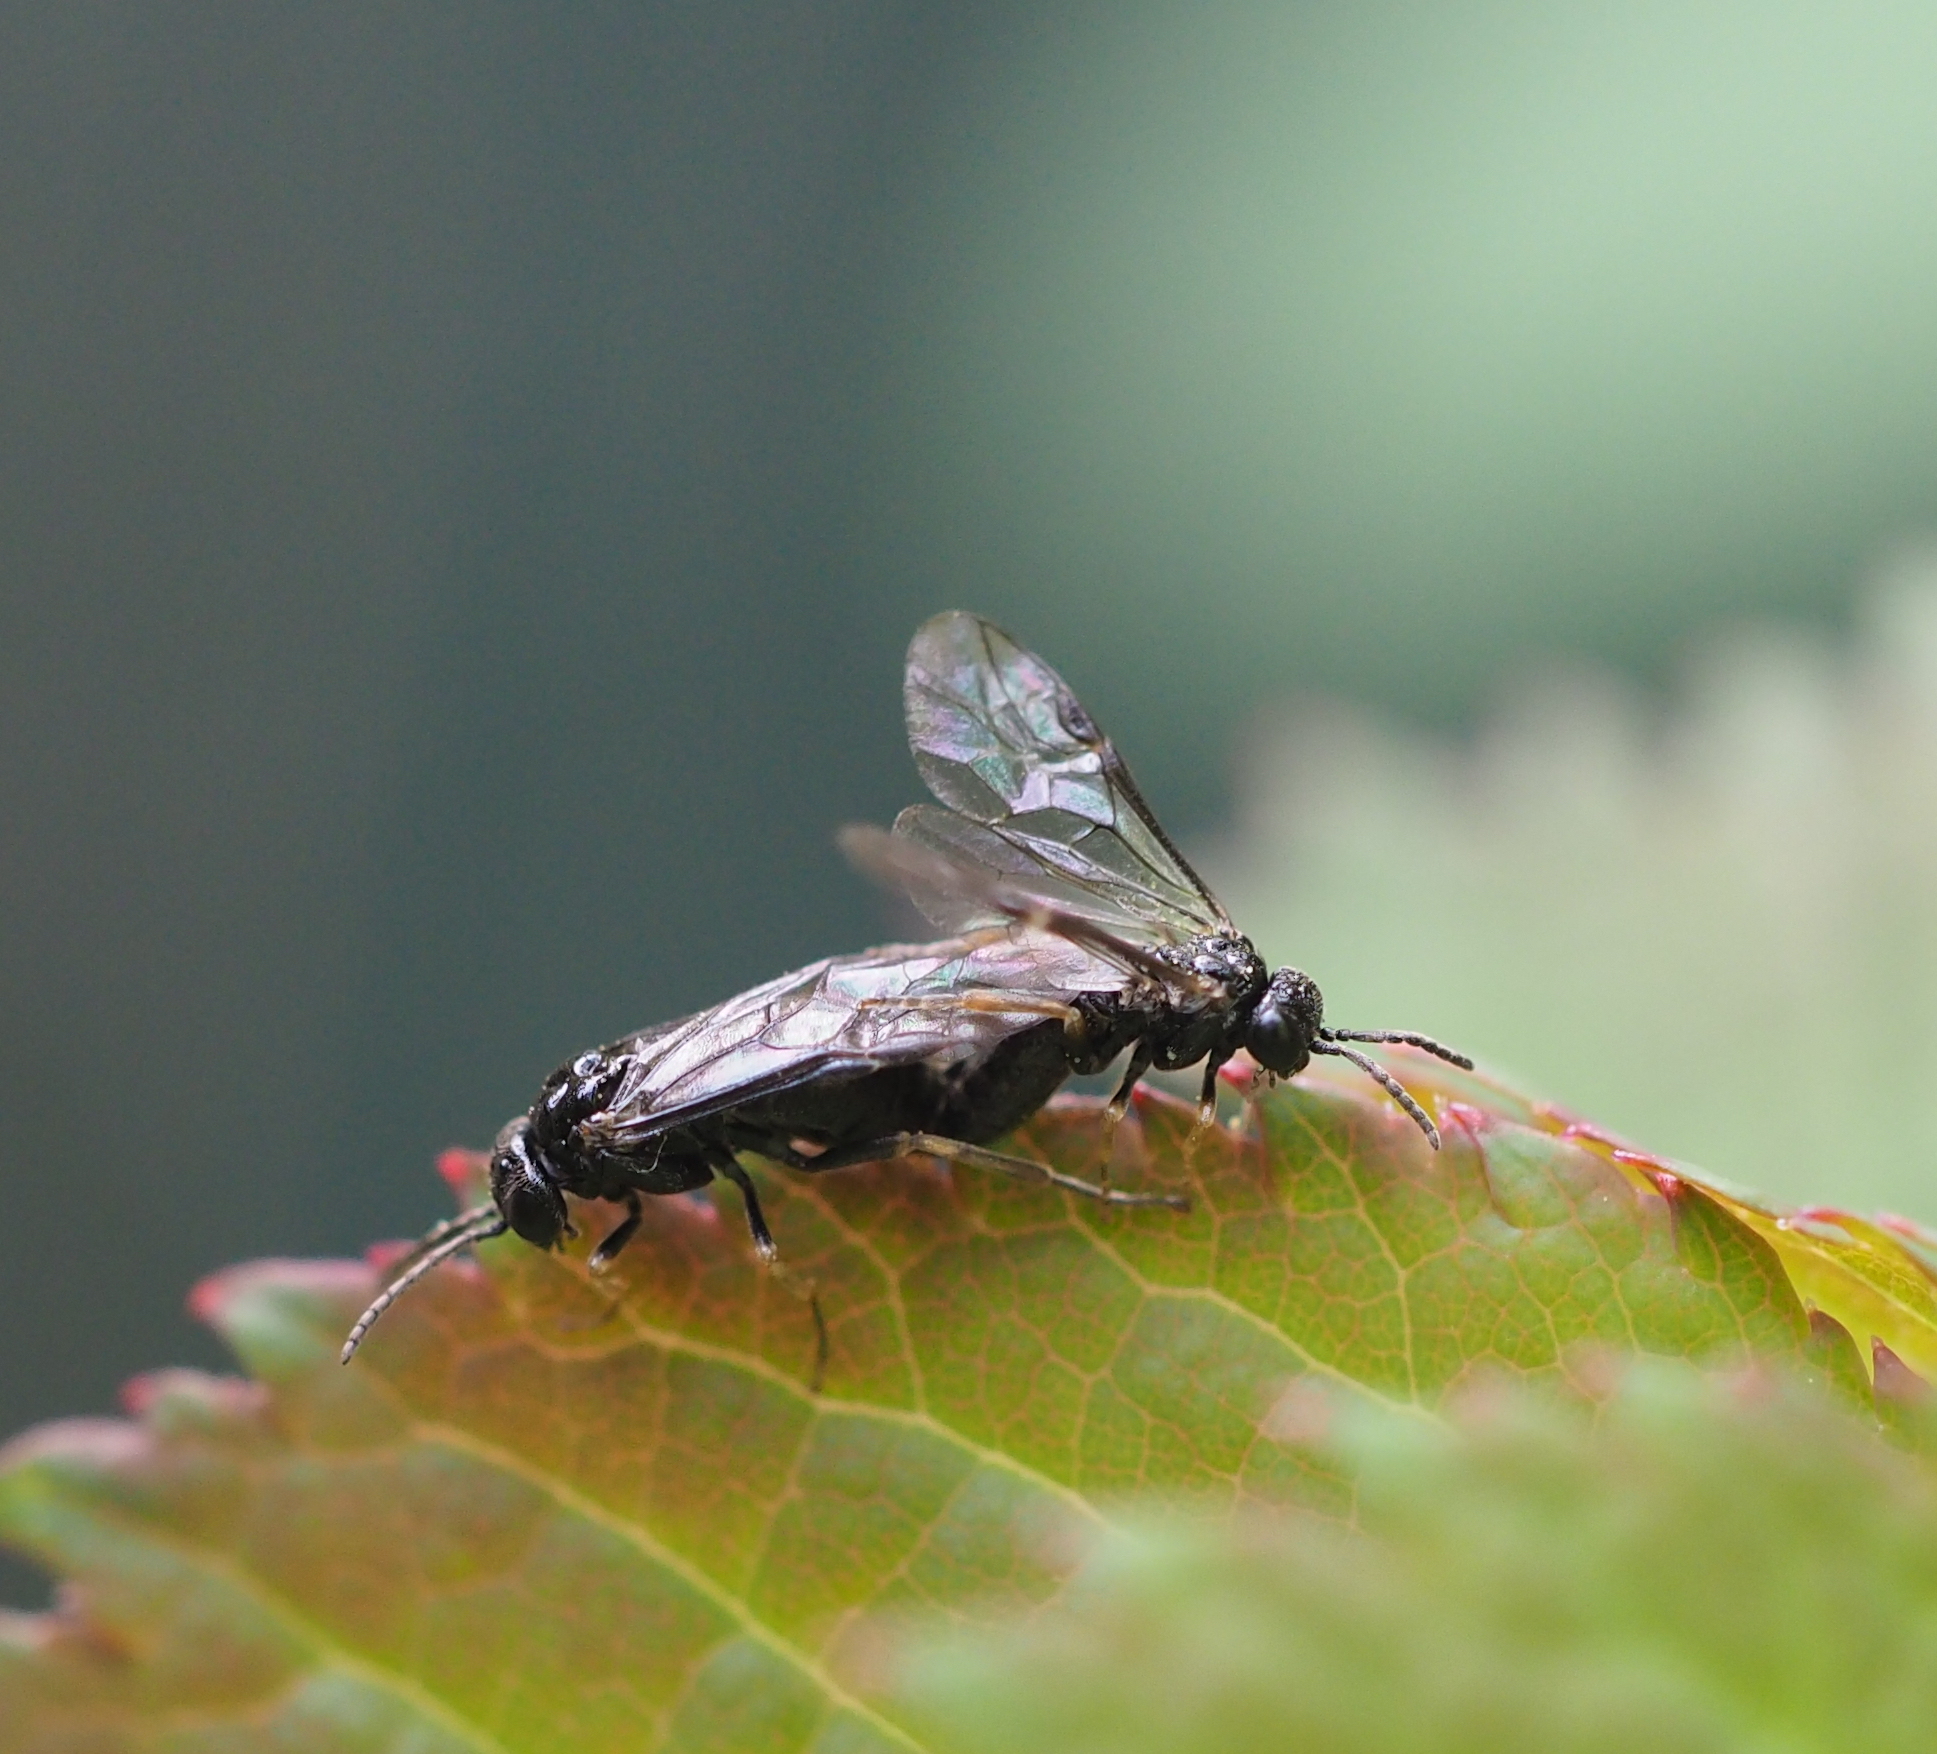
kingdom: Animalia
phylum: Arthropoda
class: Insecta
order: Hymenoptera
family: Tenthredinidae
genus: Blennocampa
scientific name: Blennocampa phyllocolpa
